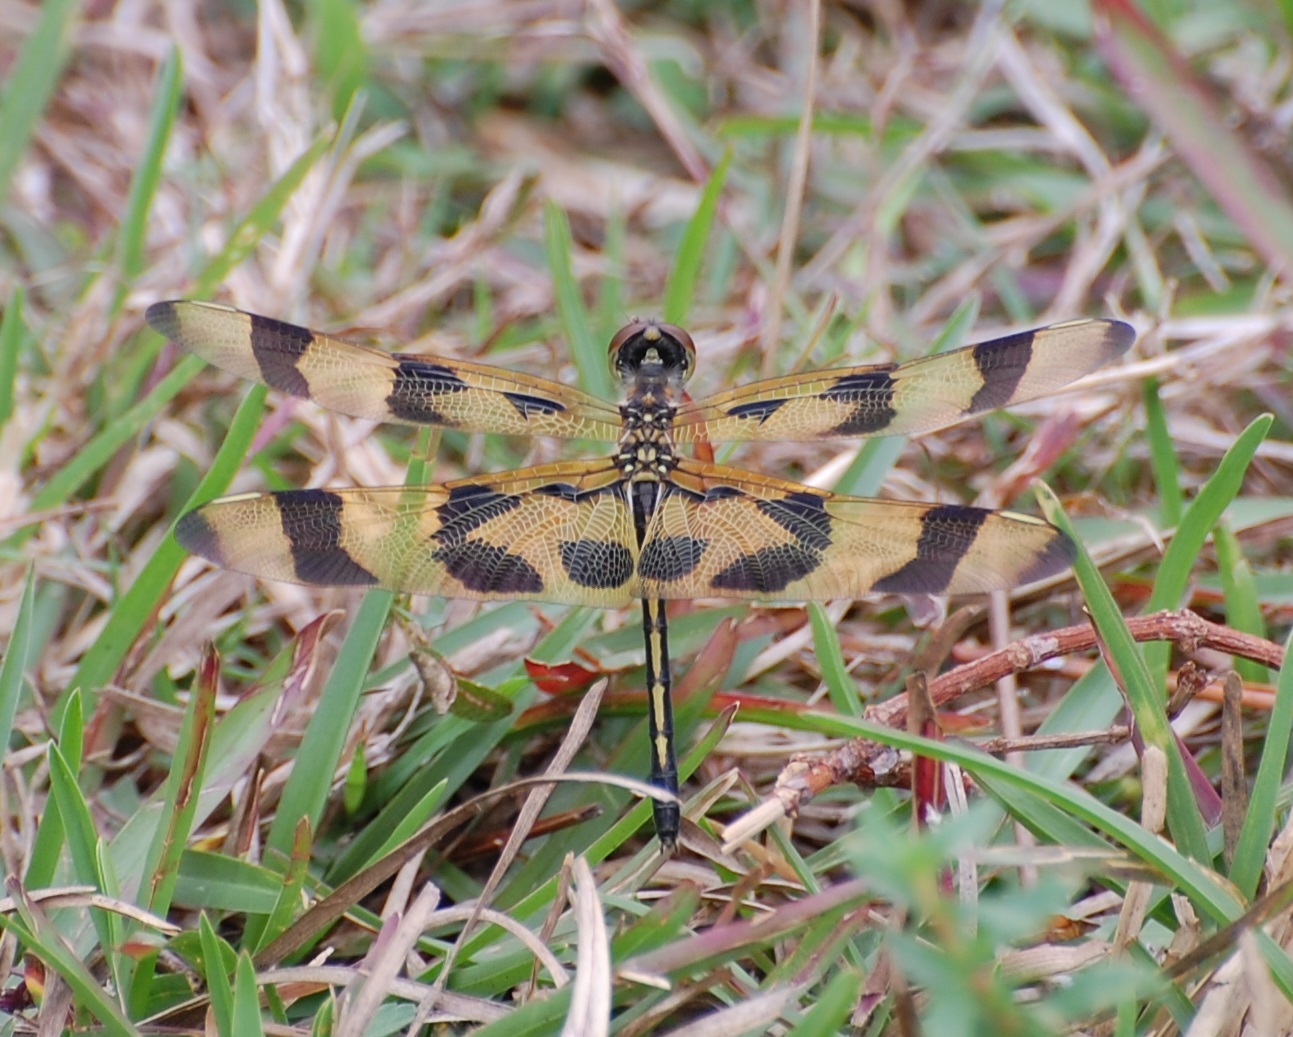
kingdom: Animalia
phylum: Arthropoda
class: Insecta
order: Odonata
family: Libellulidae
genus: Celithemis
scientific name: Celithemis eponina
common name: Halloween pennant
